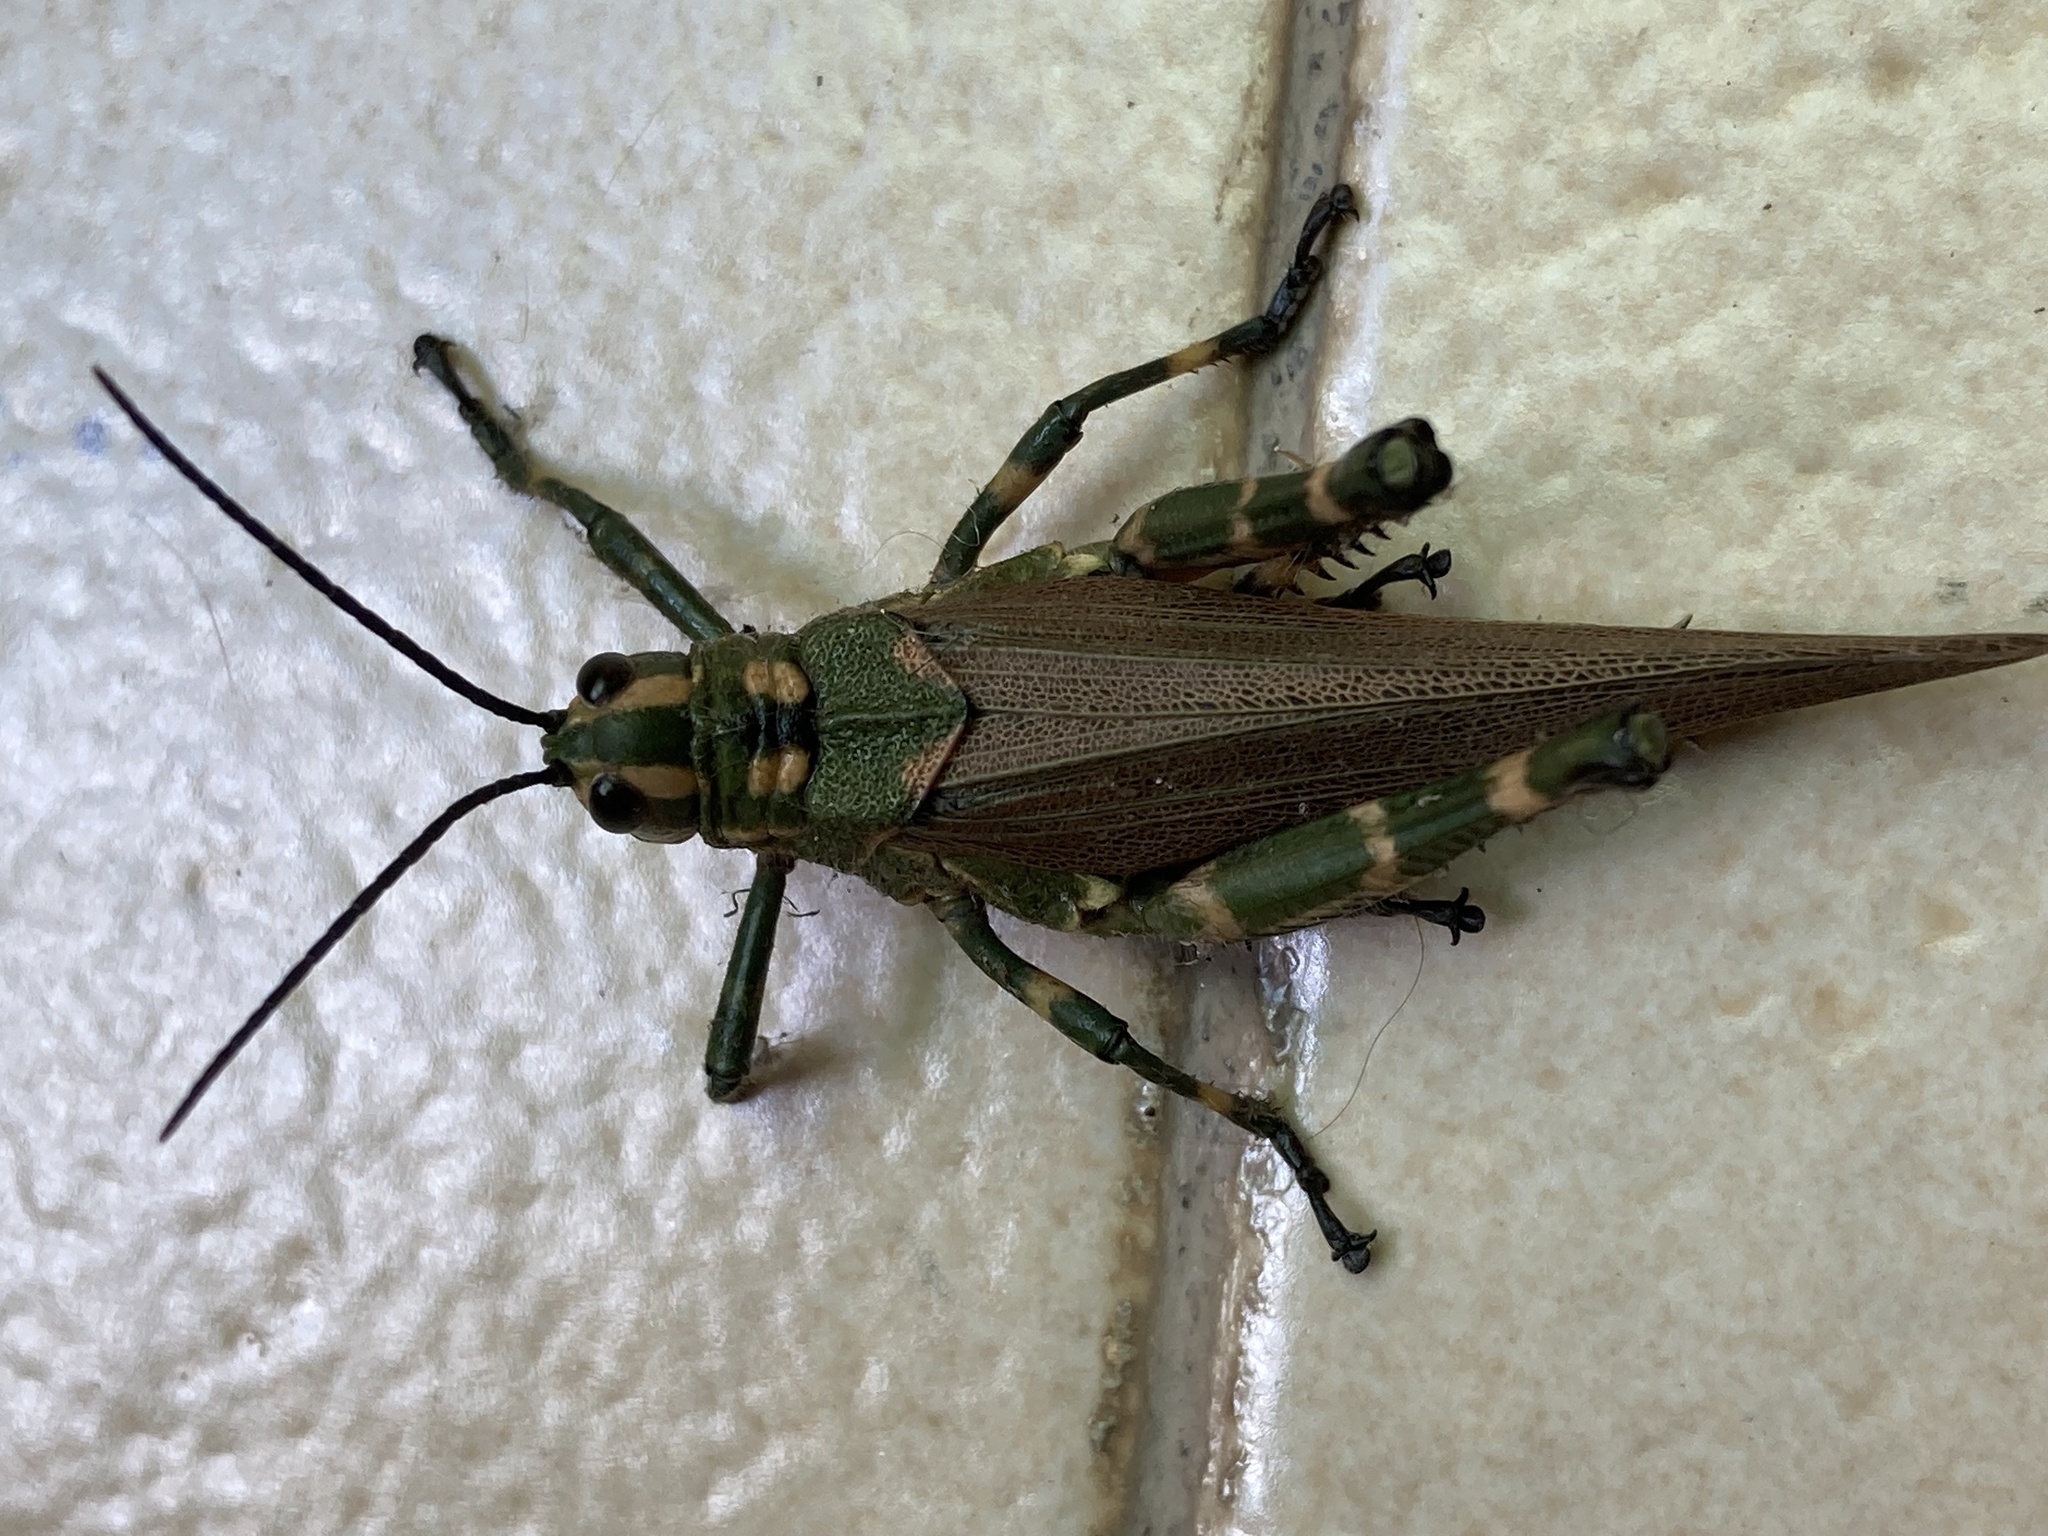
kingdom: Animalia
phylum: Arthropoda
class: Insecta
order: Orthoptera
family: Romaleidae
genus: Chromacris
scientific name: Chromacris speciosa
